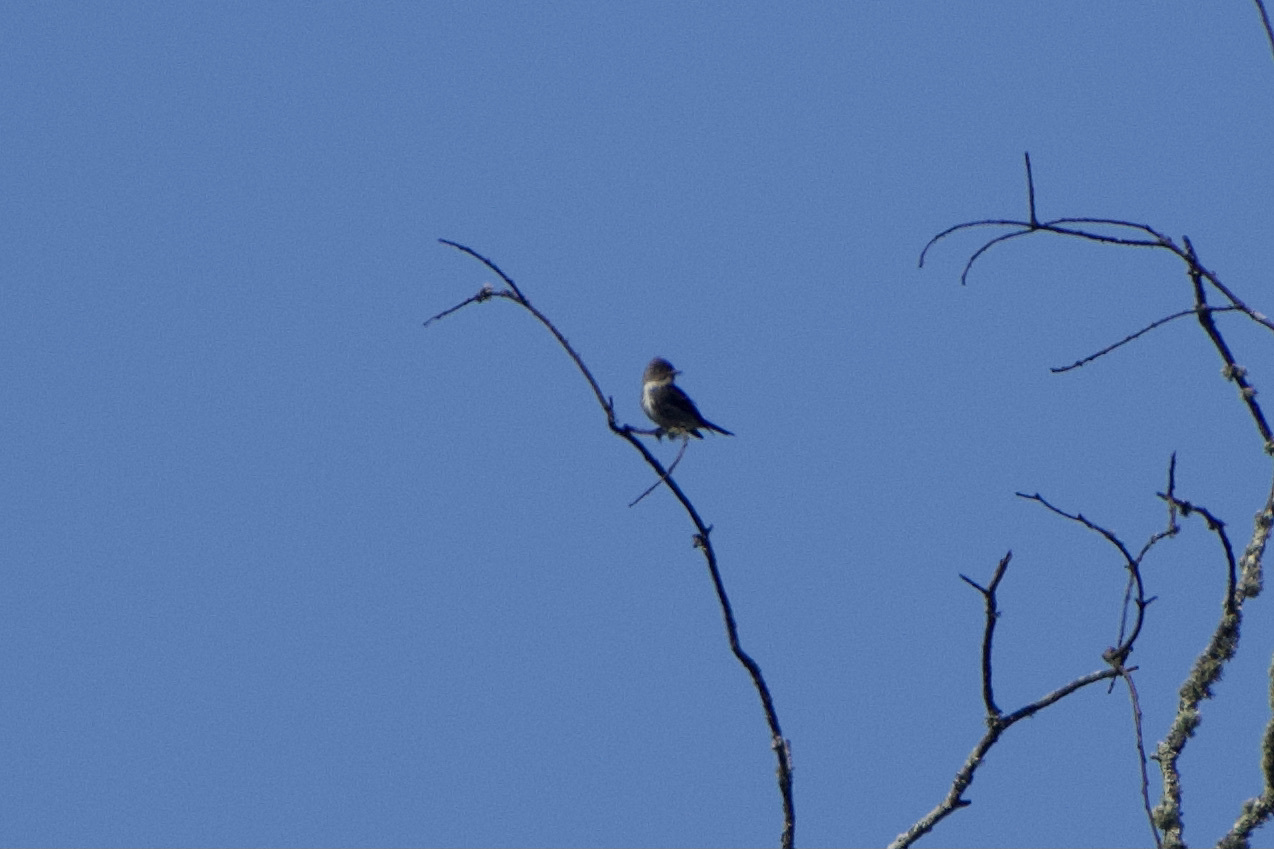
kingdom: Animalia
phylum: Chordata
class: Aves
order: Passeriformes
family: Tyrannidae
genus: Contopus
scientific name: Contopus cooperi
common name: Olive-sided flycatcher
